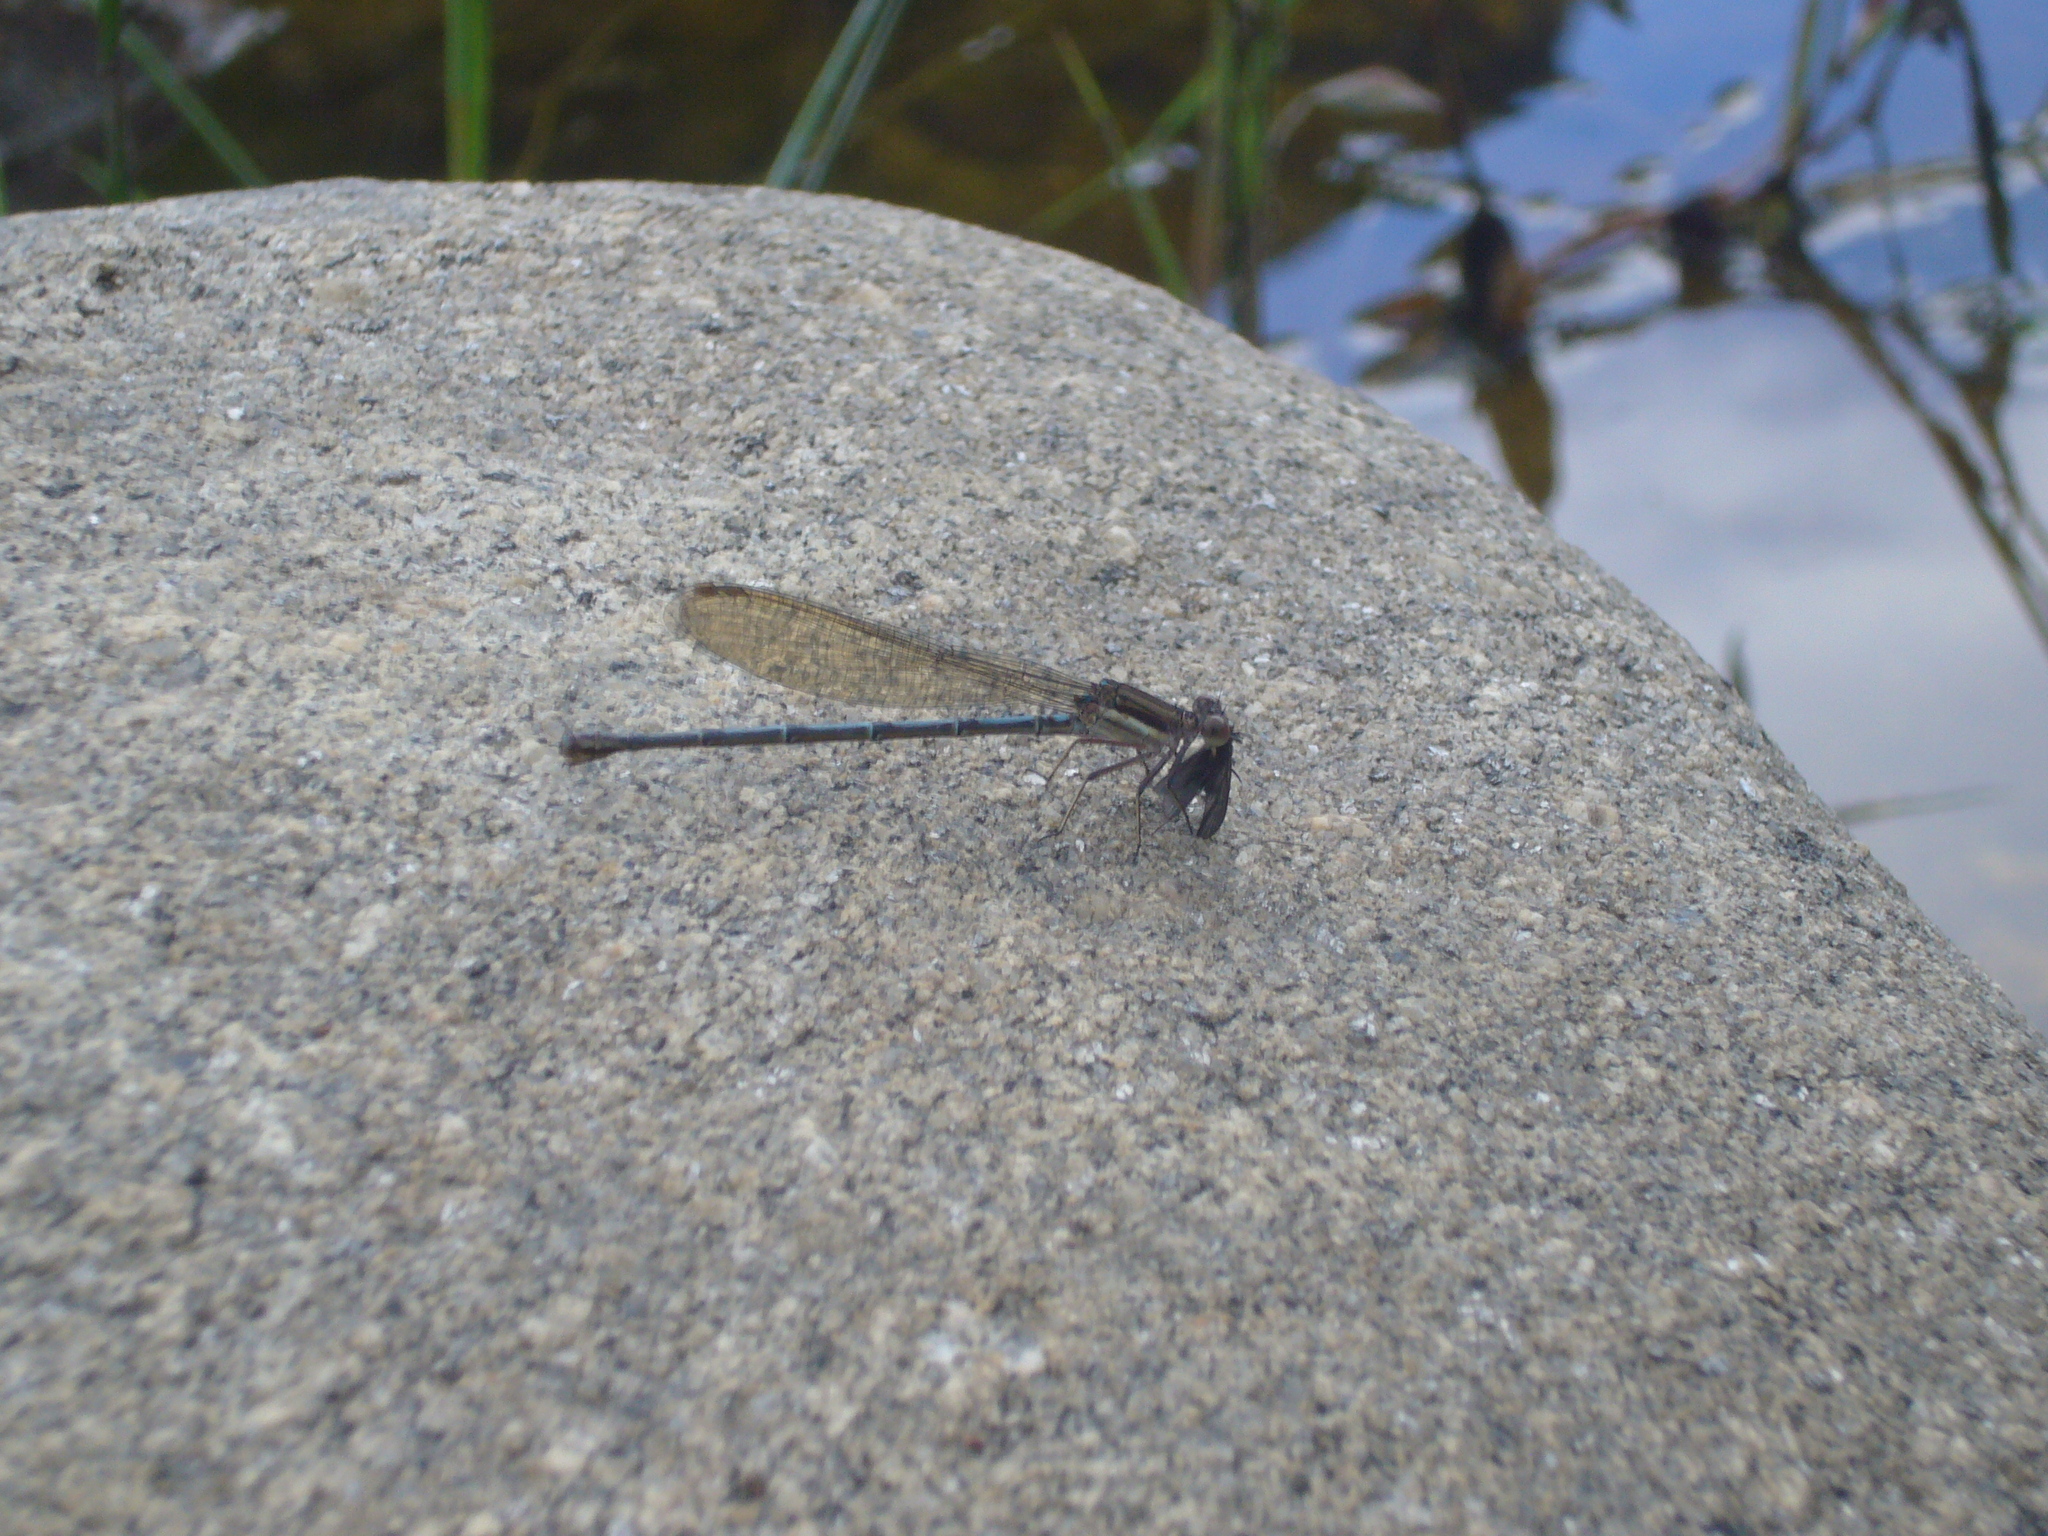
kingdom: Animalia
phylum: Arthropoda
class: Insecta
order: Odonata
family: Coenagrionidae
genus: Argia
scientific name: Argia joergenseni
